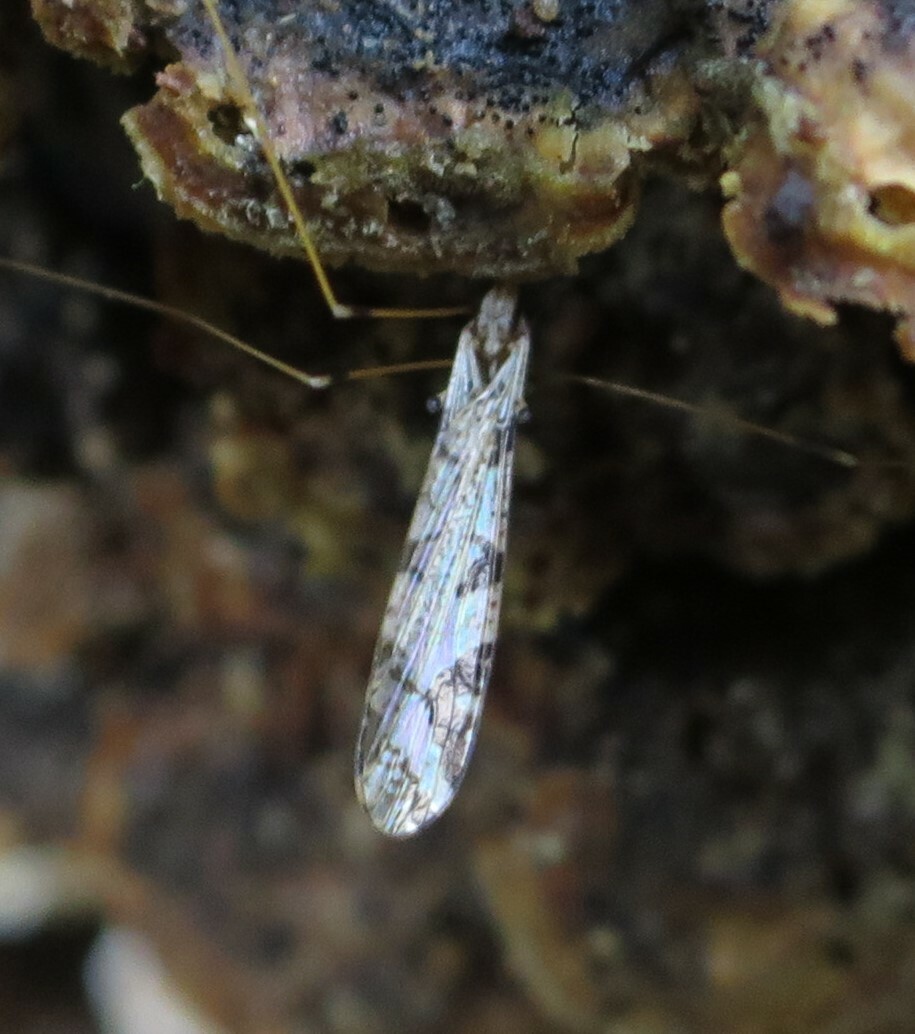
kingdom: Animalia
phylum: Arthropoda
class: Insecta
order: Diptera
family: Limoniidae
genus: Discobola
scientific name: Discobola striata
